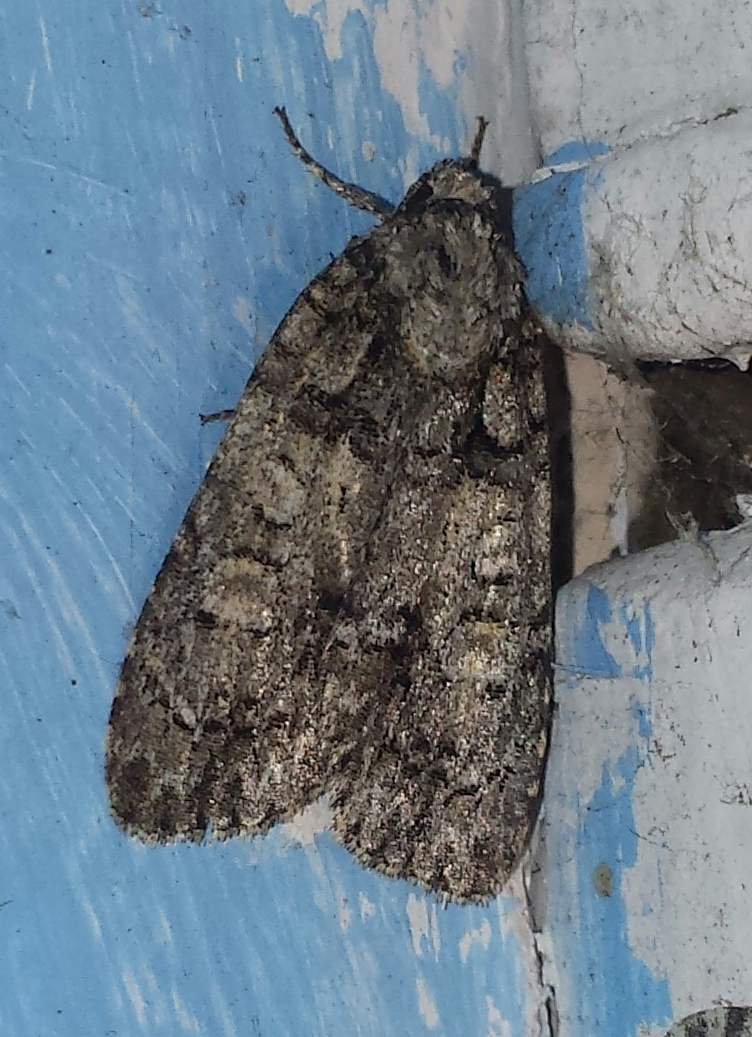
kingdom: Animalia
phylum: Arthropoda
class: Insecta
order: Lepidoptera
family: Noctuidae
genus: Acronicta
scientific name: Acronicta increta
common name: Eclipsed oak dagger
